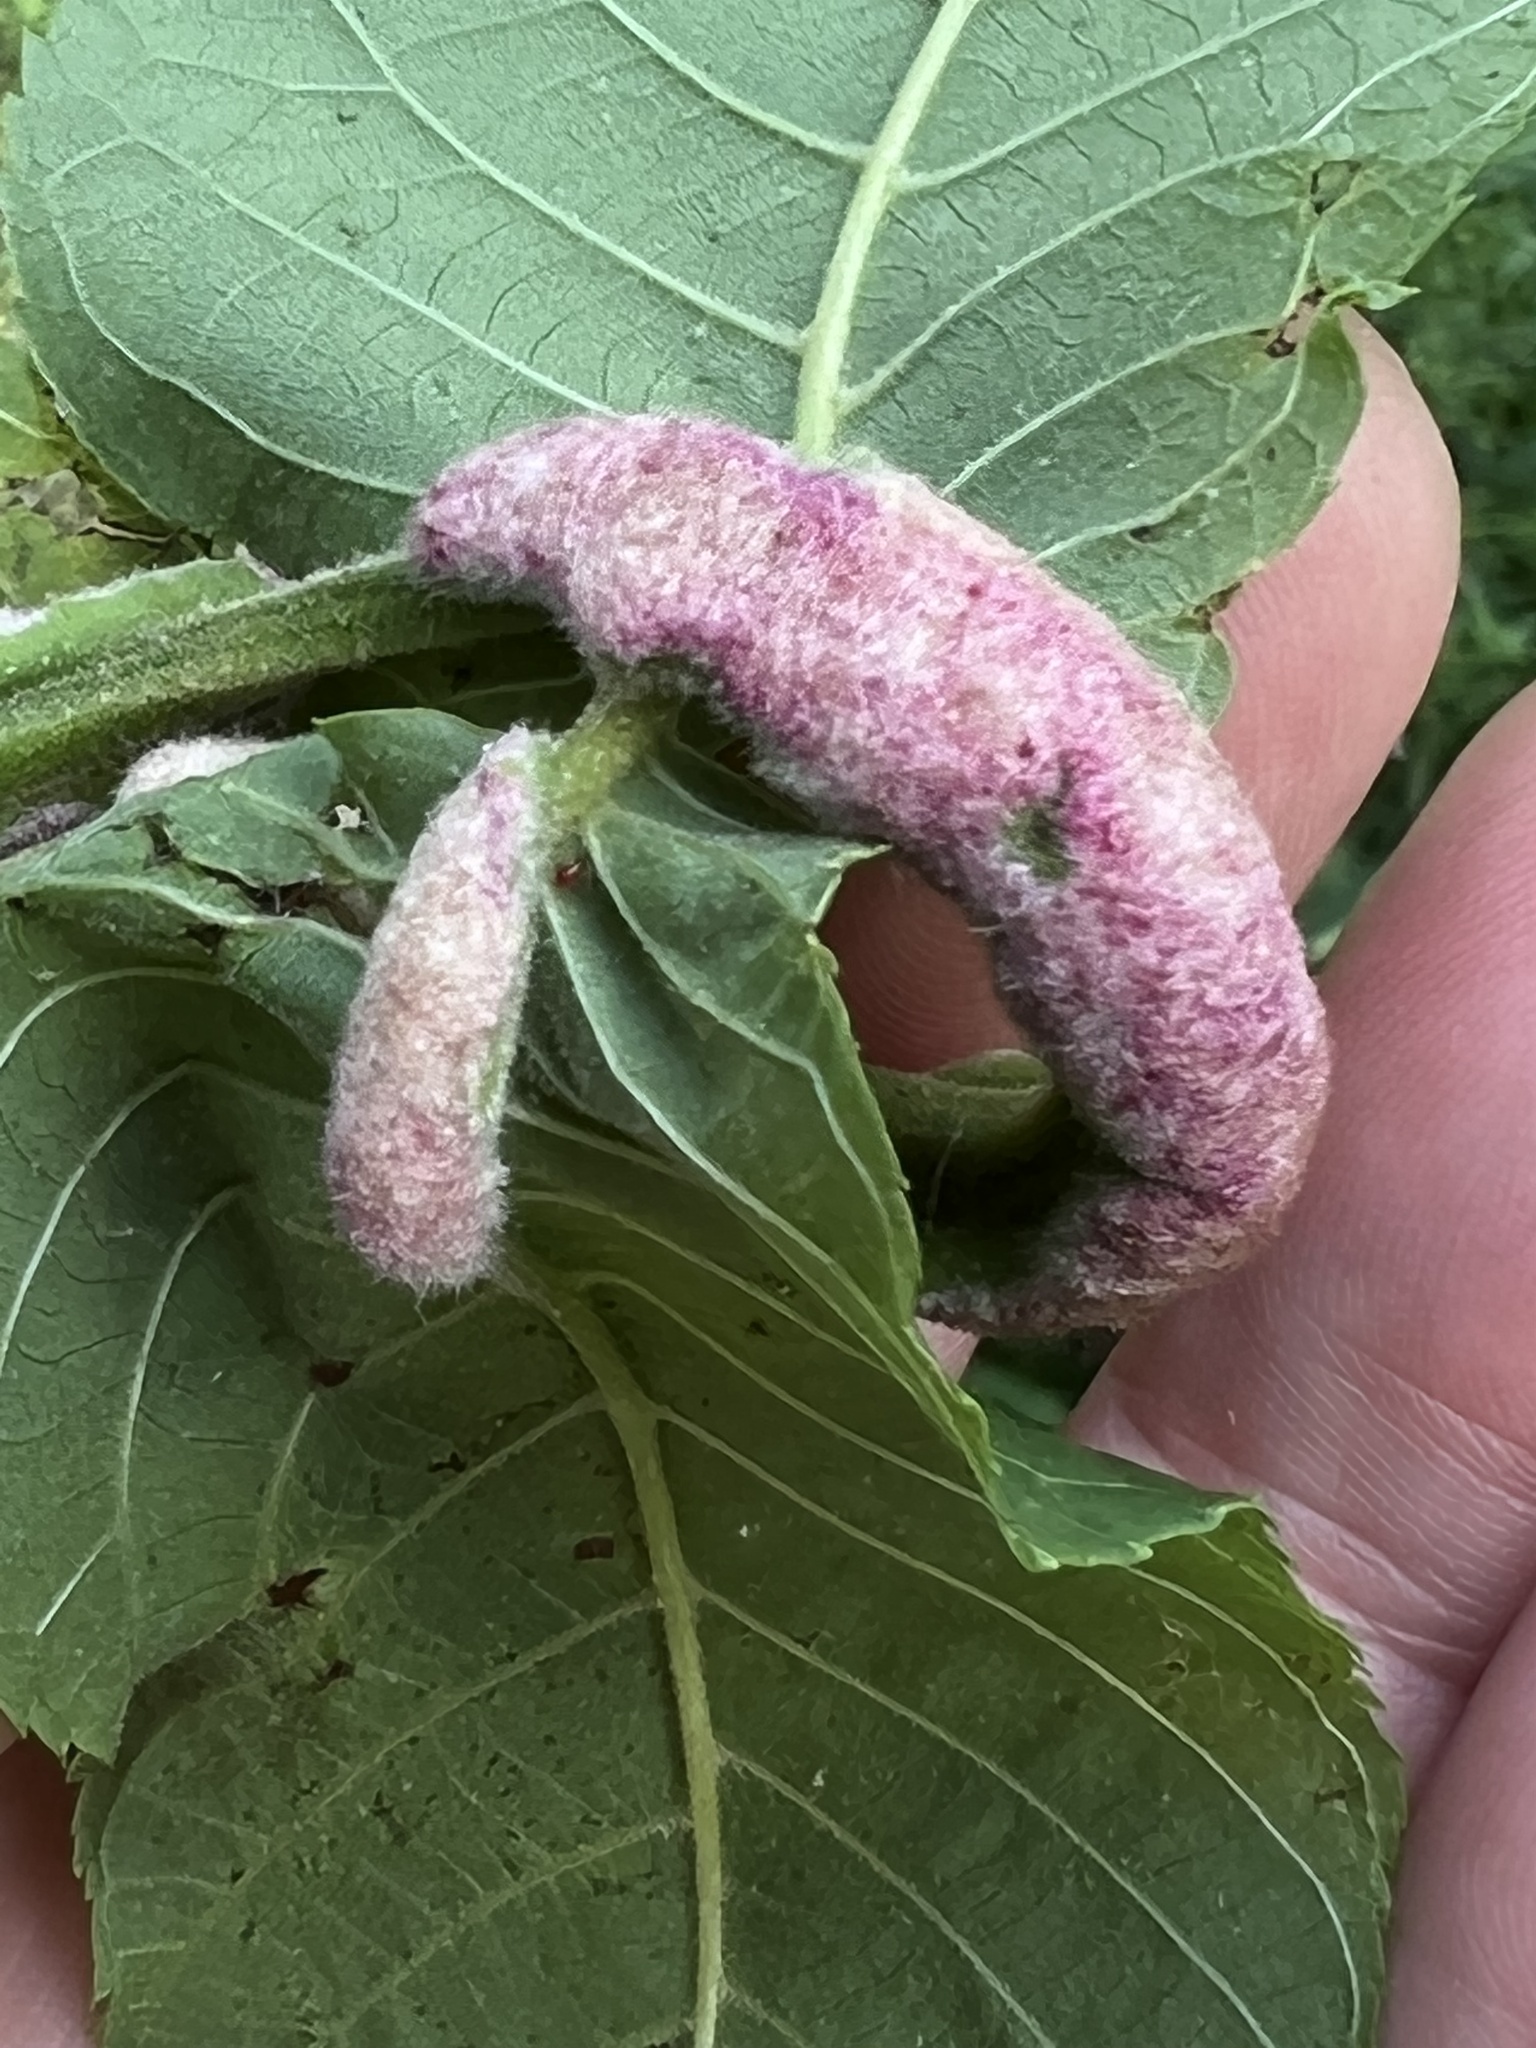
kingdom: Animalia
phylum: Arthropoda
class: Arachnida
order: Trombidiformes
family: Eriophyidae
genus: Aceria
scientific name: Aceria
